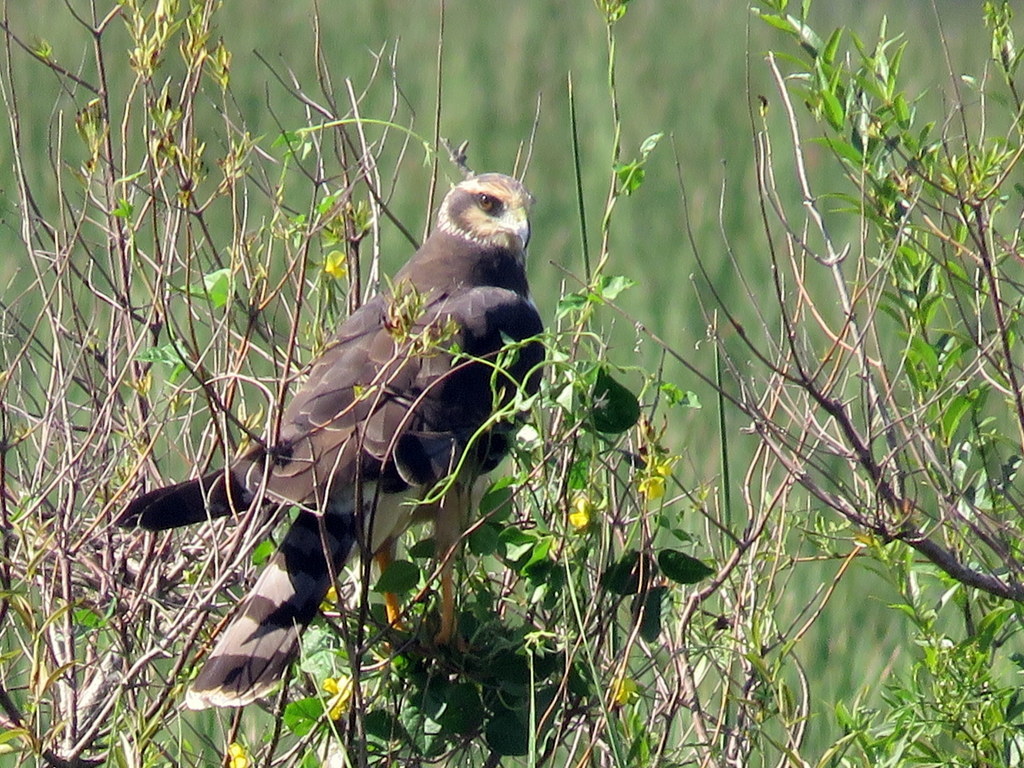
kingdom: Animalia
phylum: Chordata
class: Aves
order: Accipitriformes
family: Accipitridae
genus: Circus
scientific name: Circus buffoni
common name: Long-winged harrier
